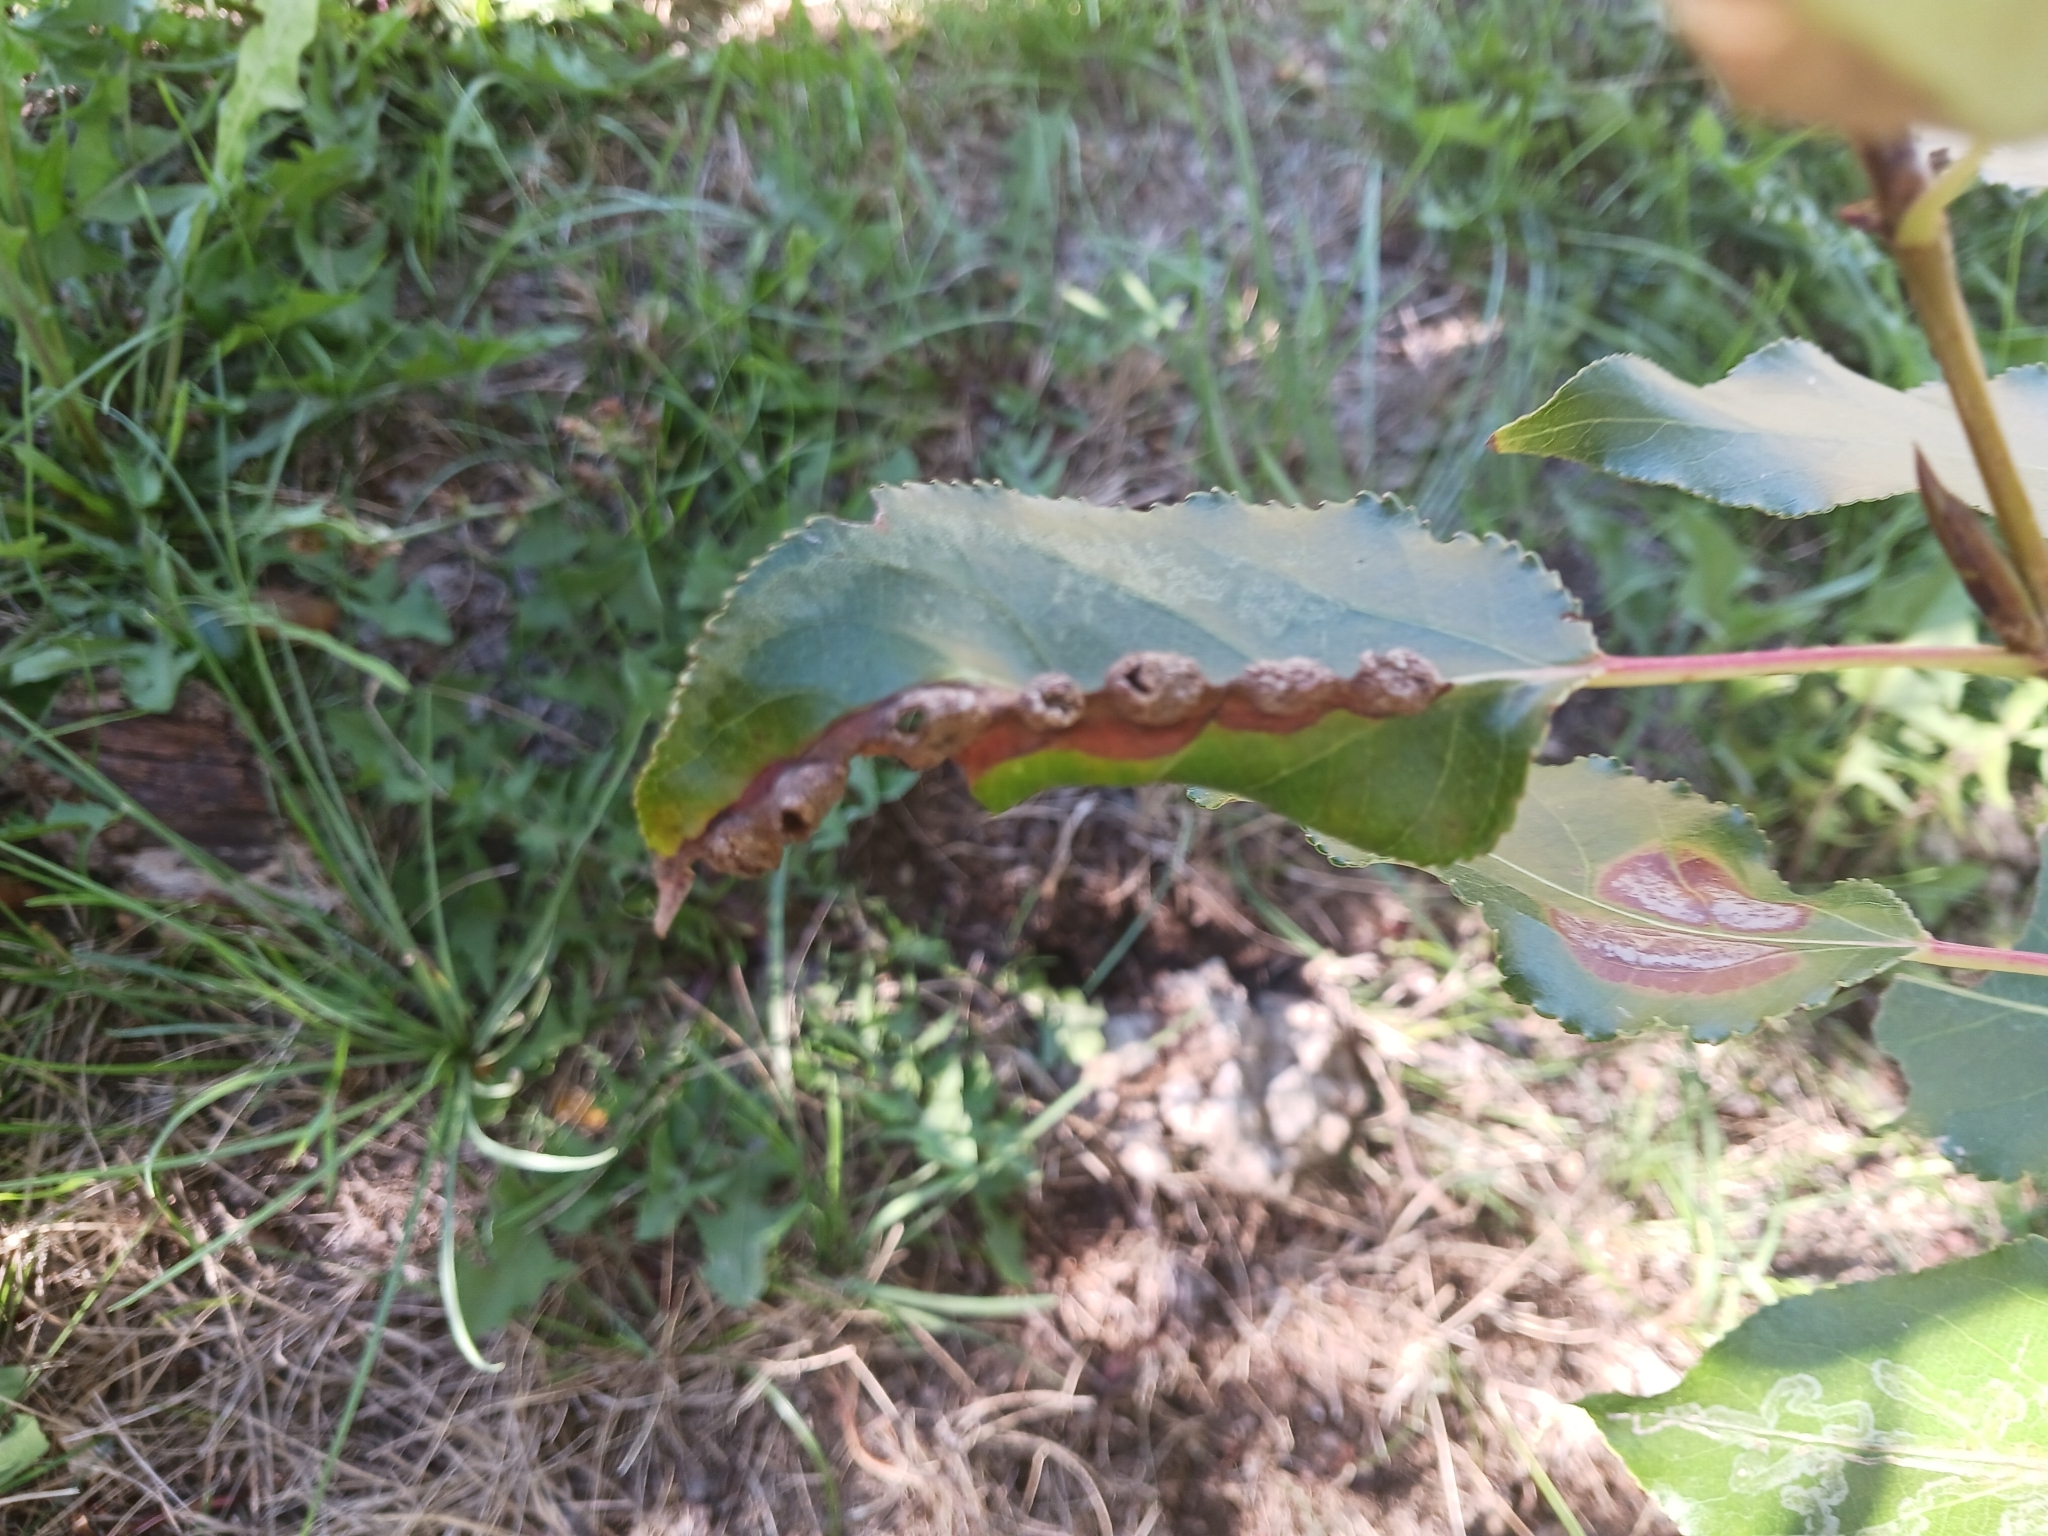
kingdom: Animalia
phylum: Arthropoda
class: Insecta
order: Hemiptera
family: Aphididae
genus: Thecabius
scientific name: Thecabius populimonilis
